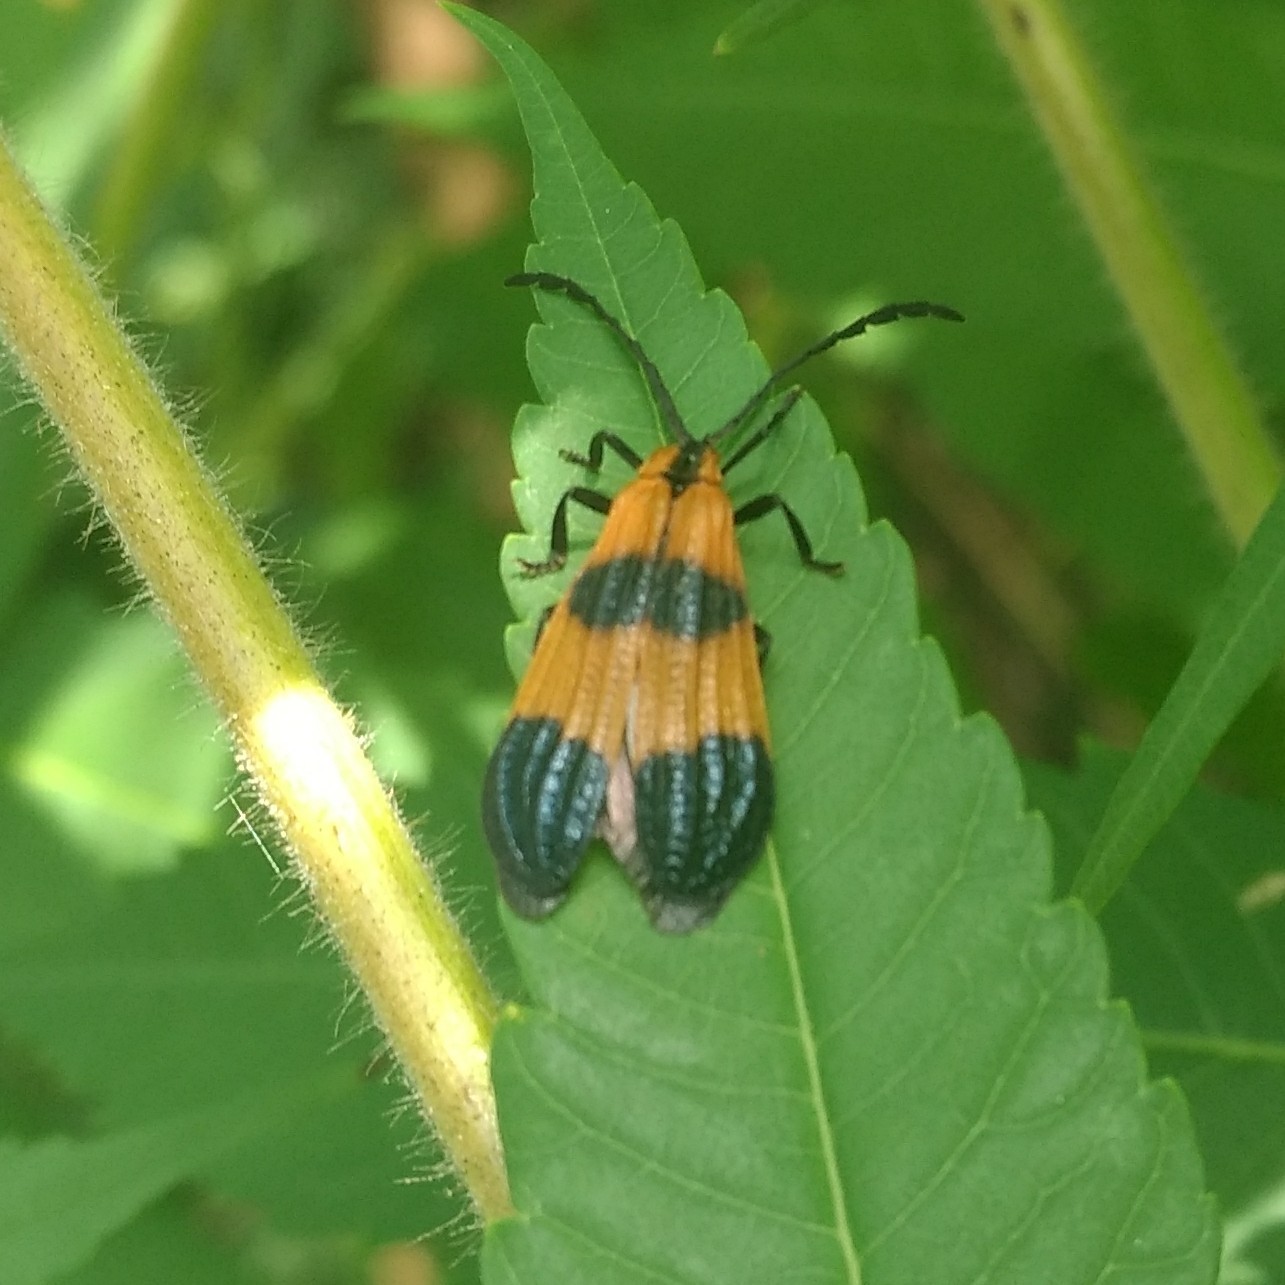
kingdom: Animalia
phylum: Arthropoda
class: Insecta
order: Coleoptera
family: Lycidae
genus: Calopteron
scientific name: Calopteron terminale
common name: End band net-winged beetle
